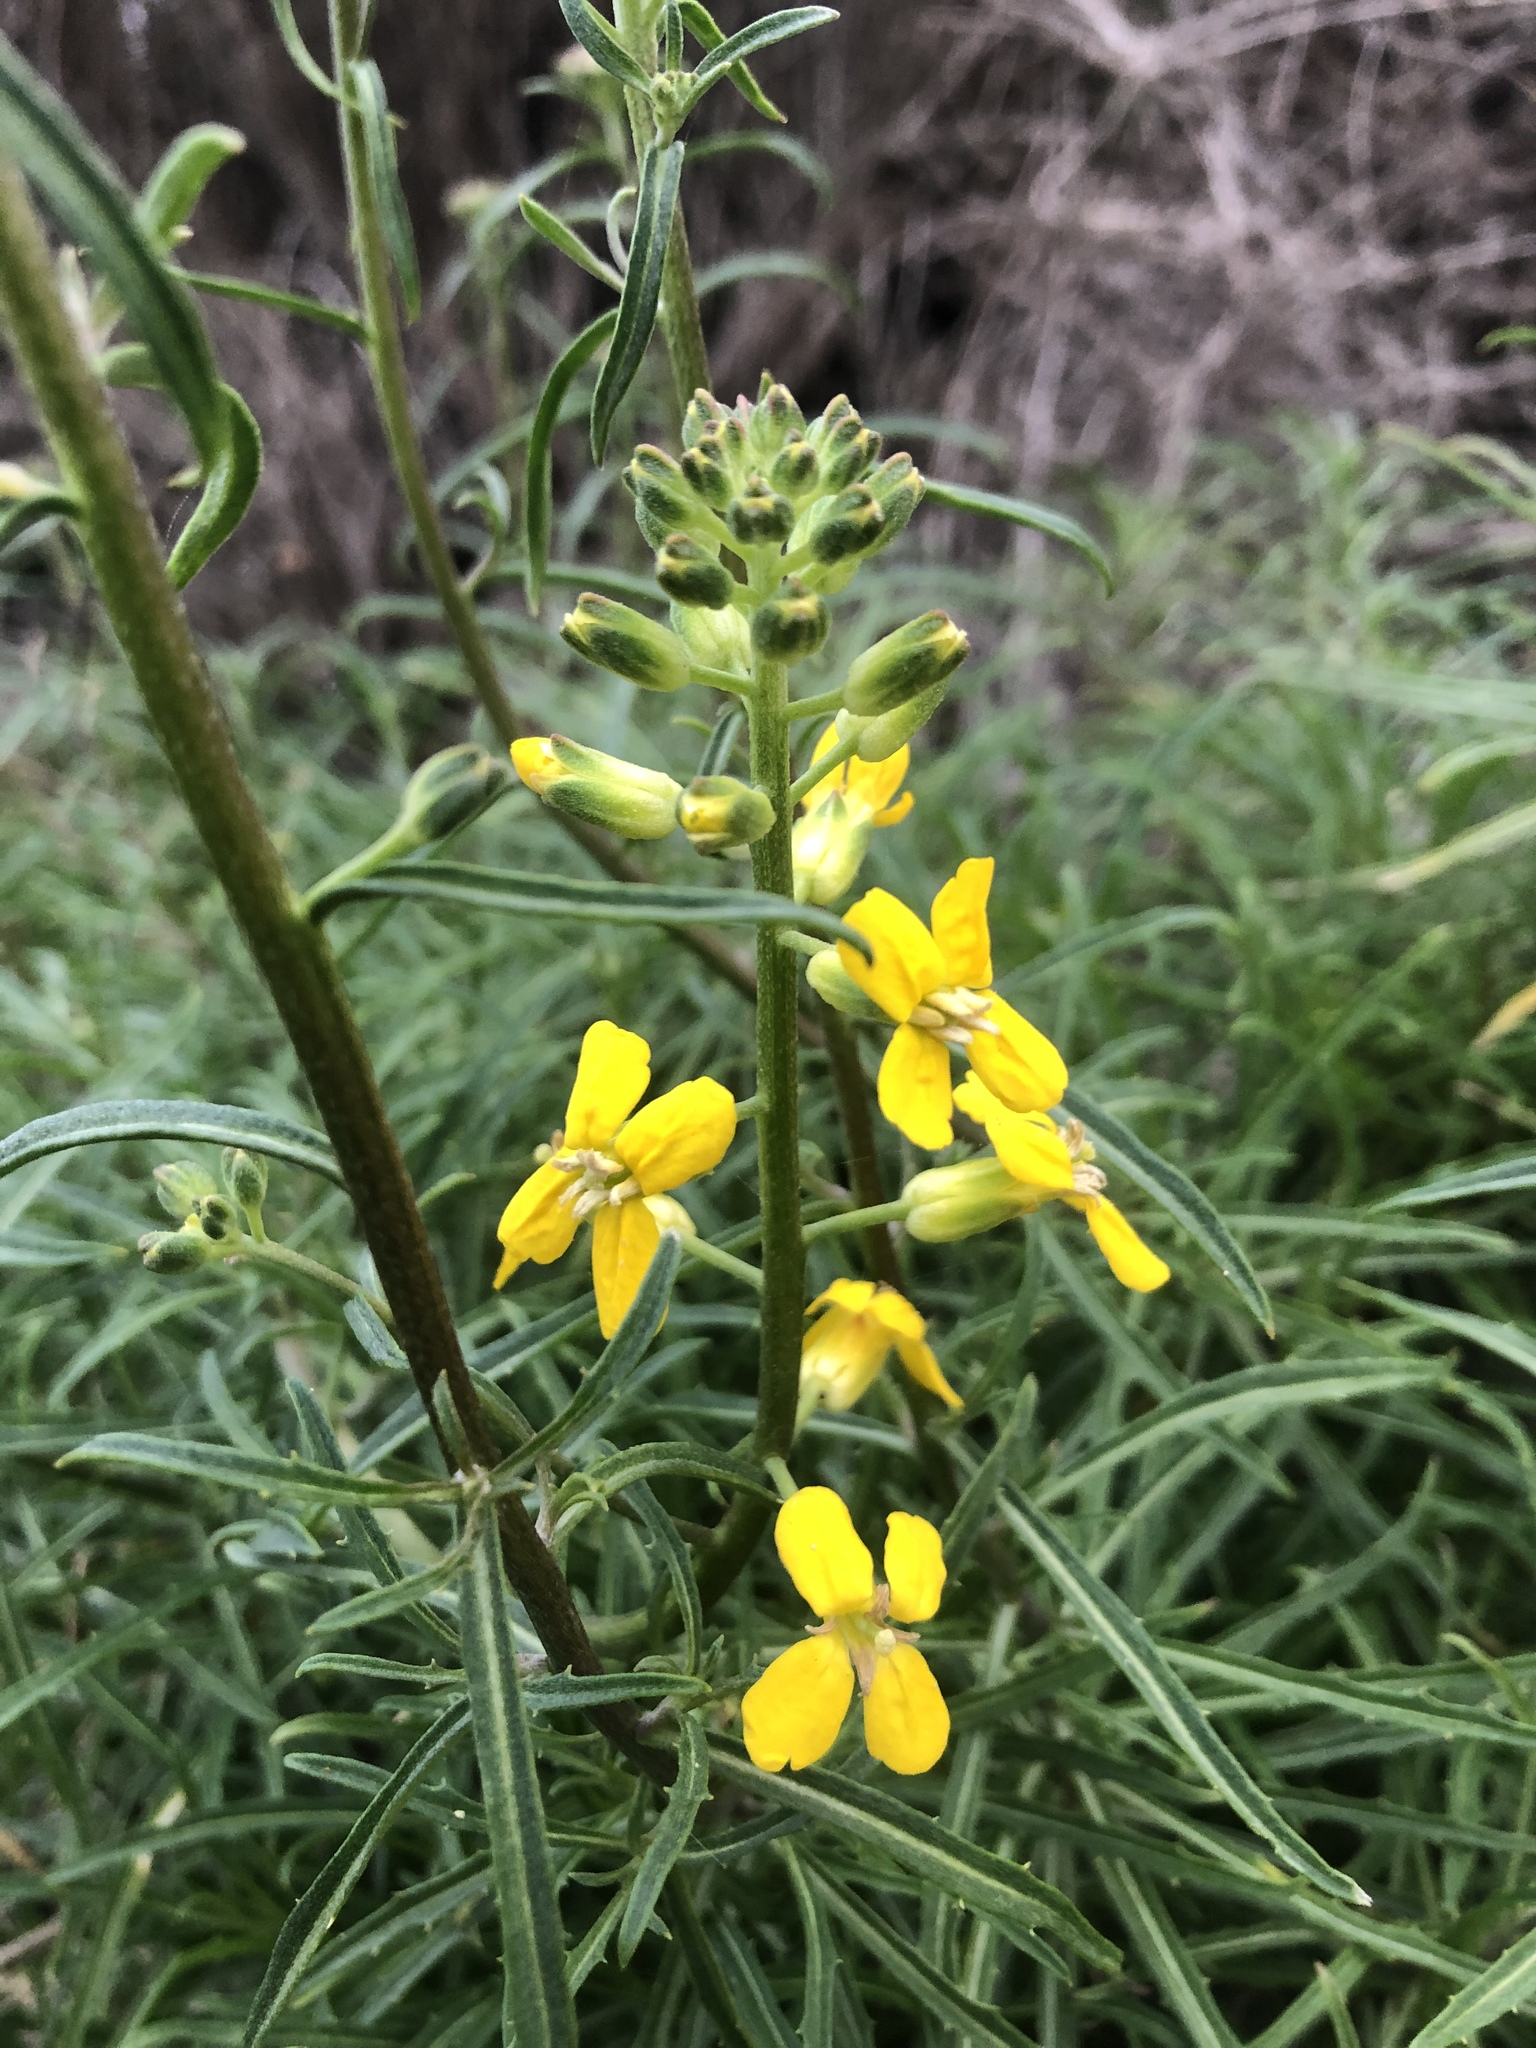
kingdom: Plantae
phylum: Tracheophyta
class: Magnoliopsida
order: Brassicales
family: Brassicaceae
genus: Erysimum
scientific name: Erysimum suffrutescens
